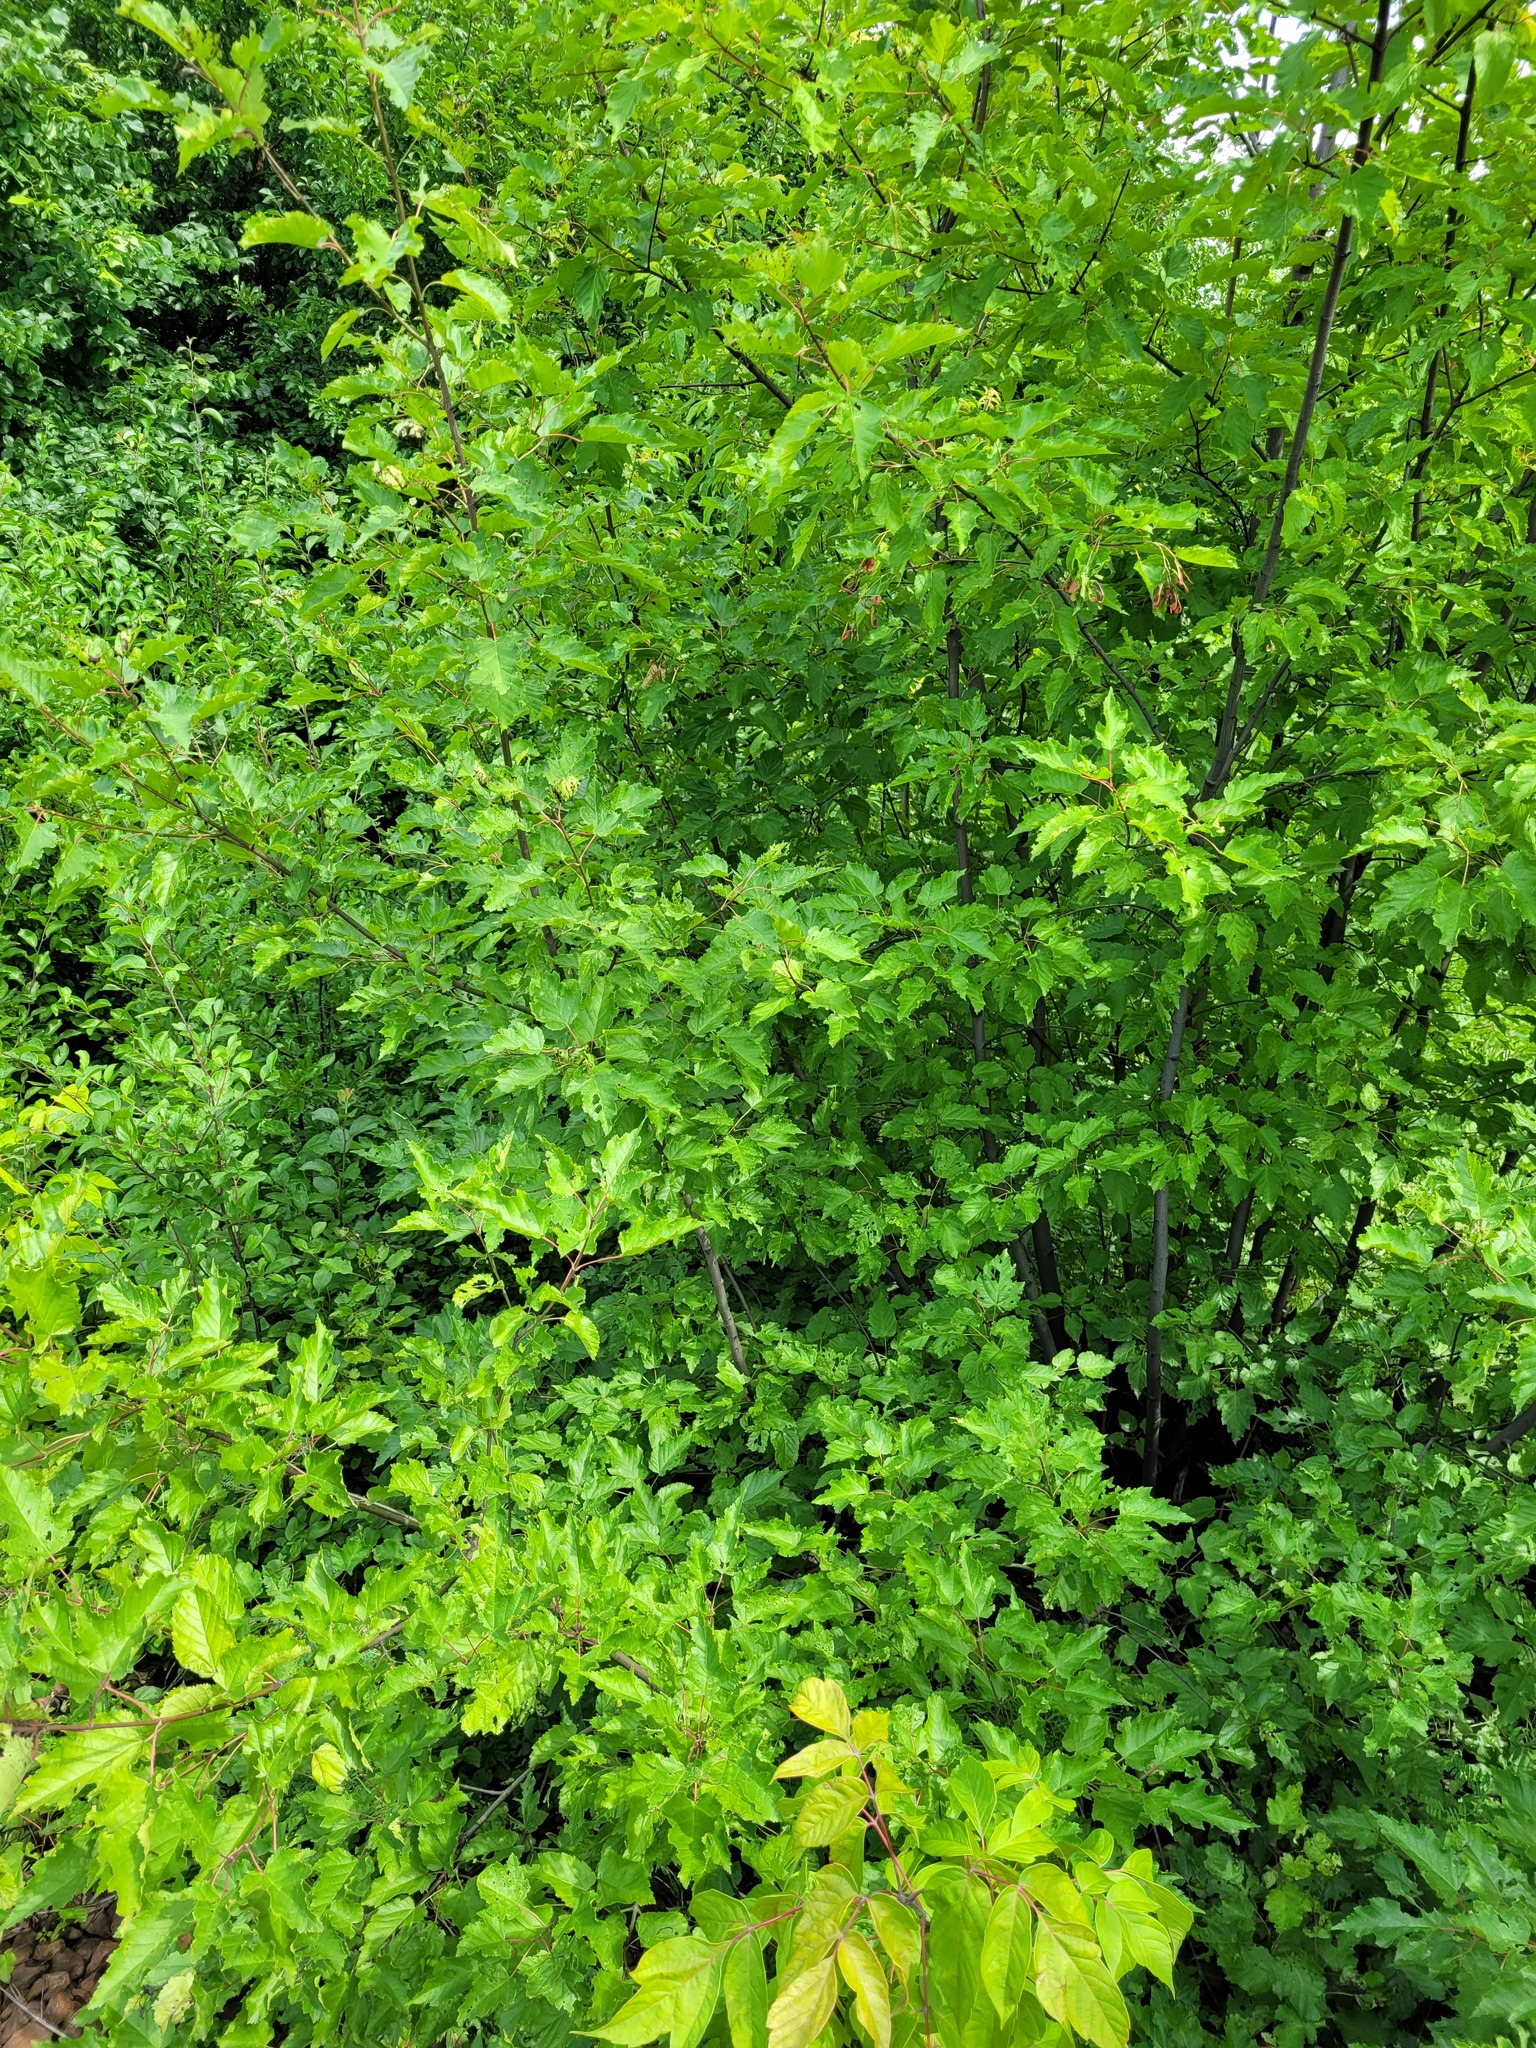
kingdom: Plantae
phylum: Tracheophyta
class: Magnoliopsida
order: Sapindales
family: Sapindaceae
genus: Acer
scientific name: Acer tataricum
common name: Tartar maple
